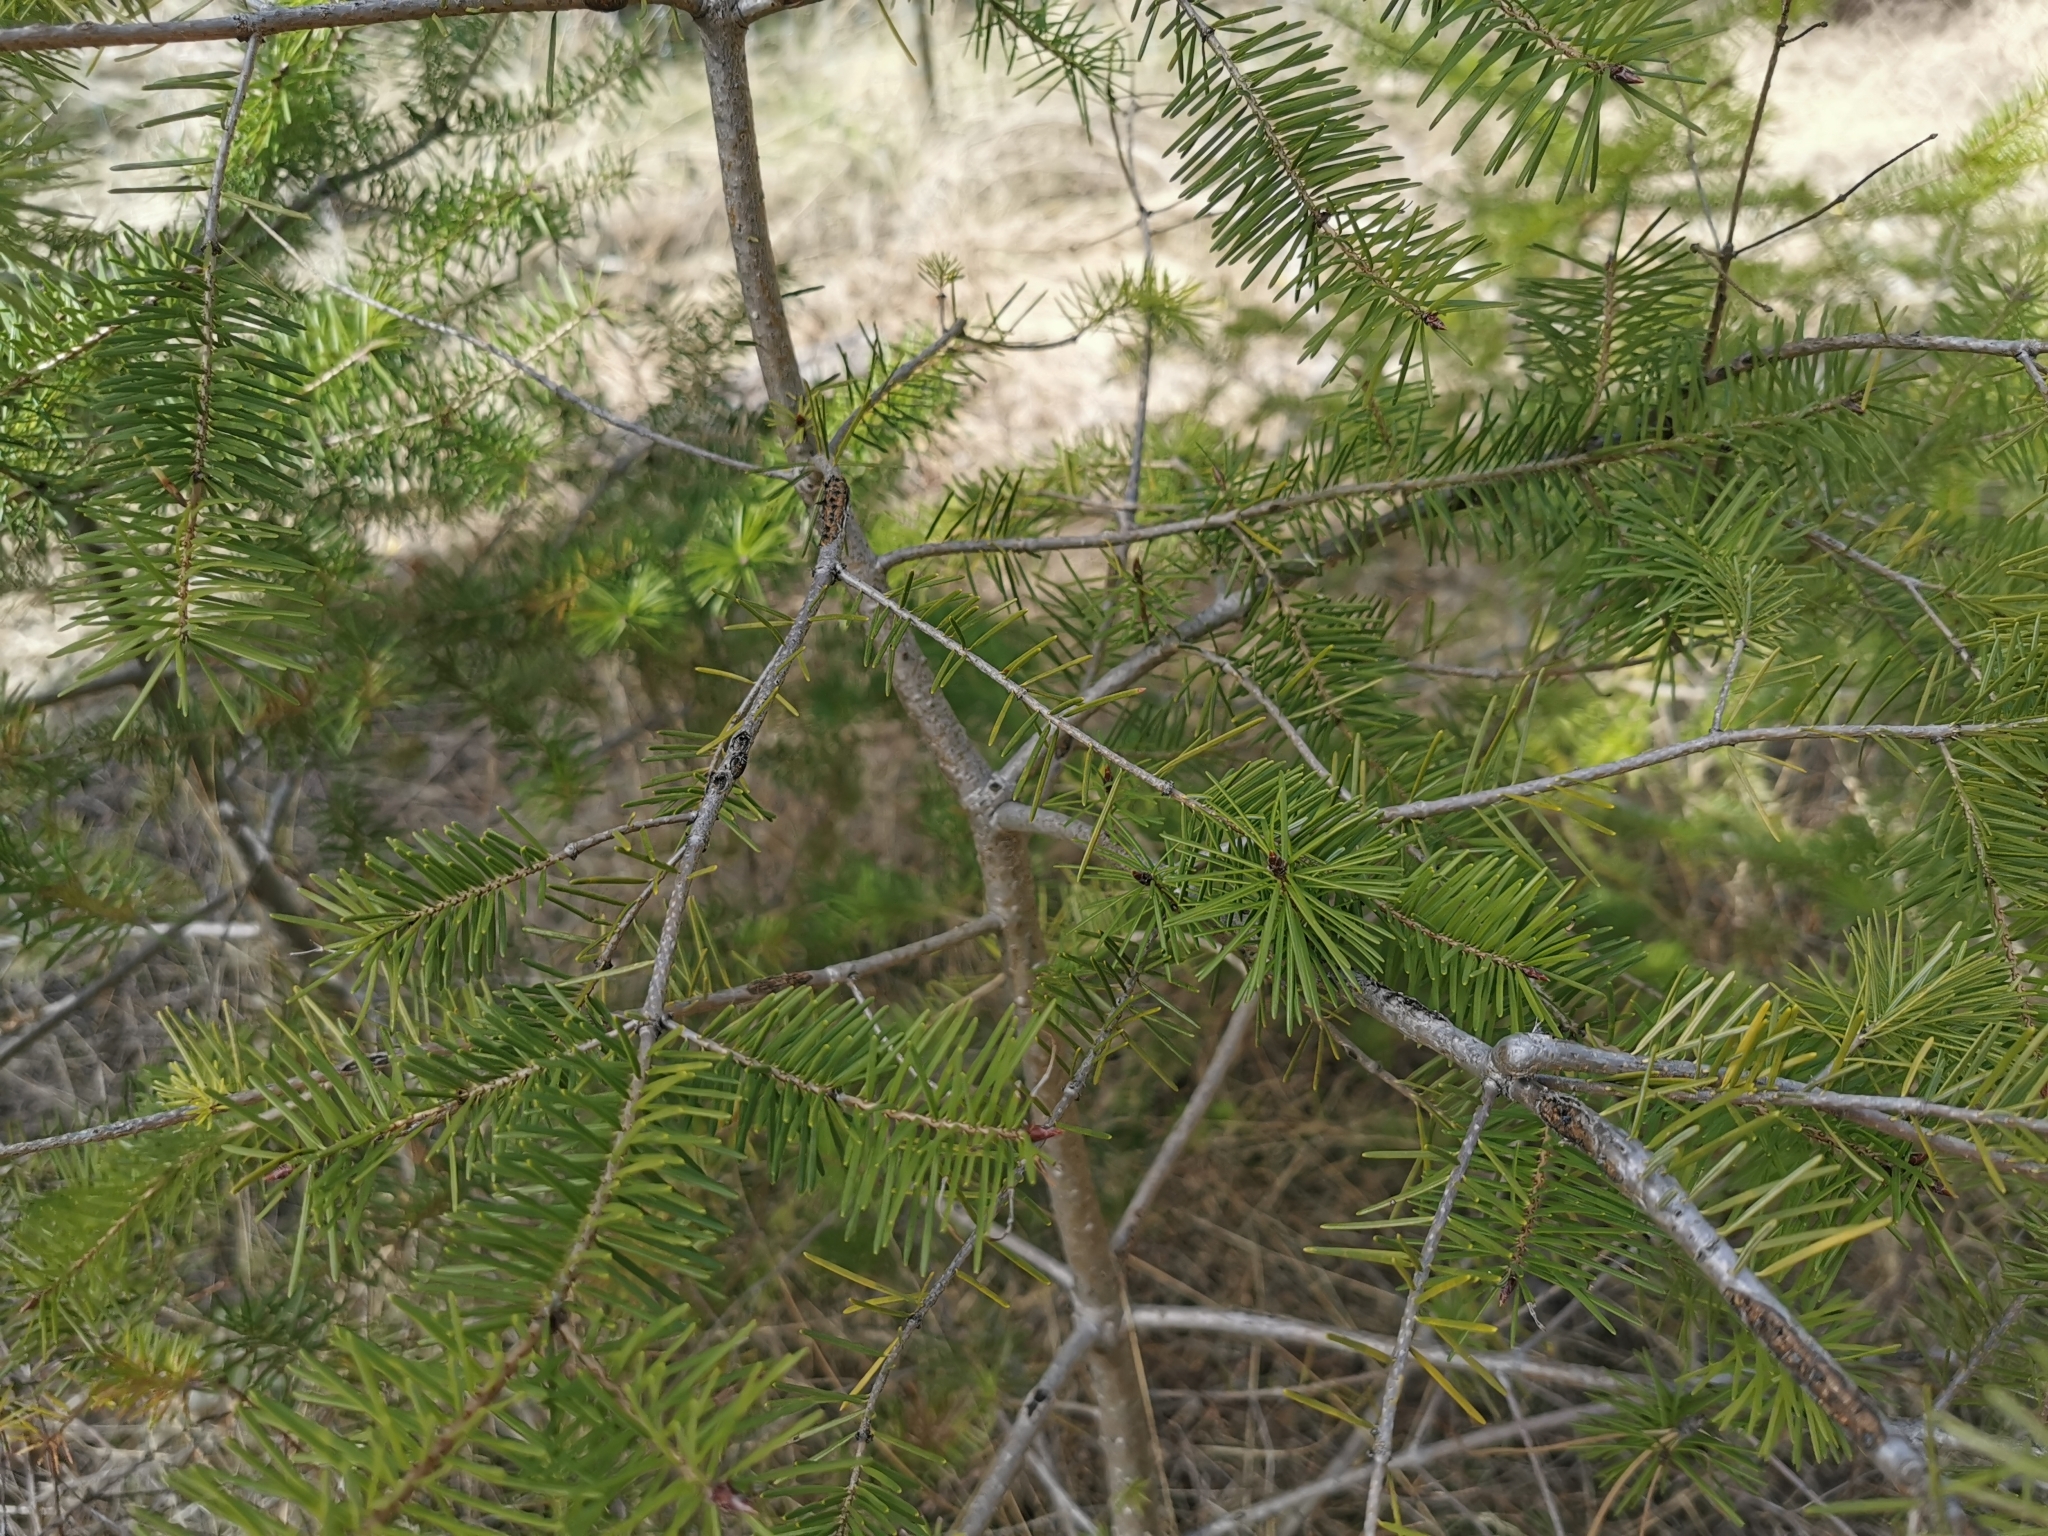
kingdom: Plantae
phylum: Tracheophyta
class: Pinopsida
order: Pinales
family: Pinaceae
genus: Pseudotsuga
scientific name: Pseudotsuga menziesii
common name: Douglas fir
